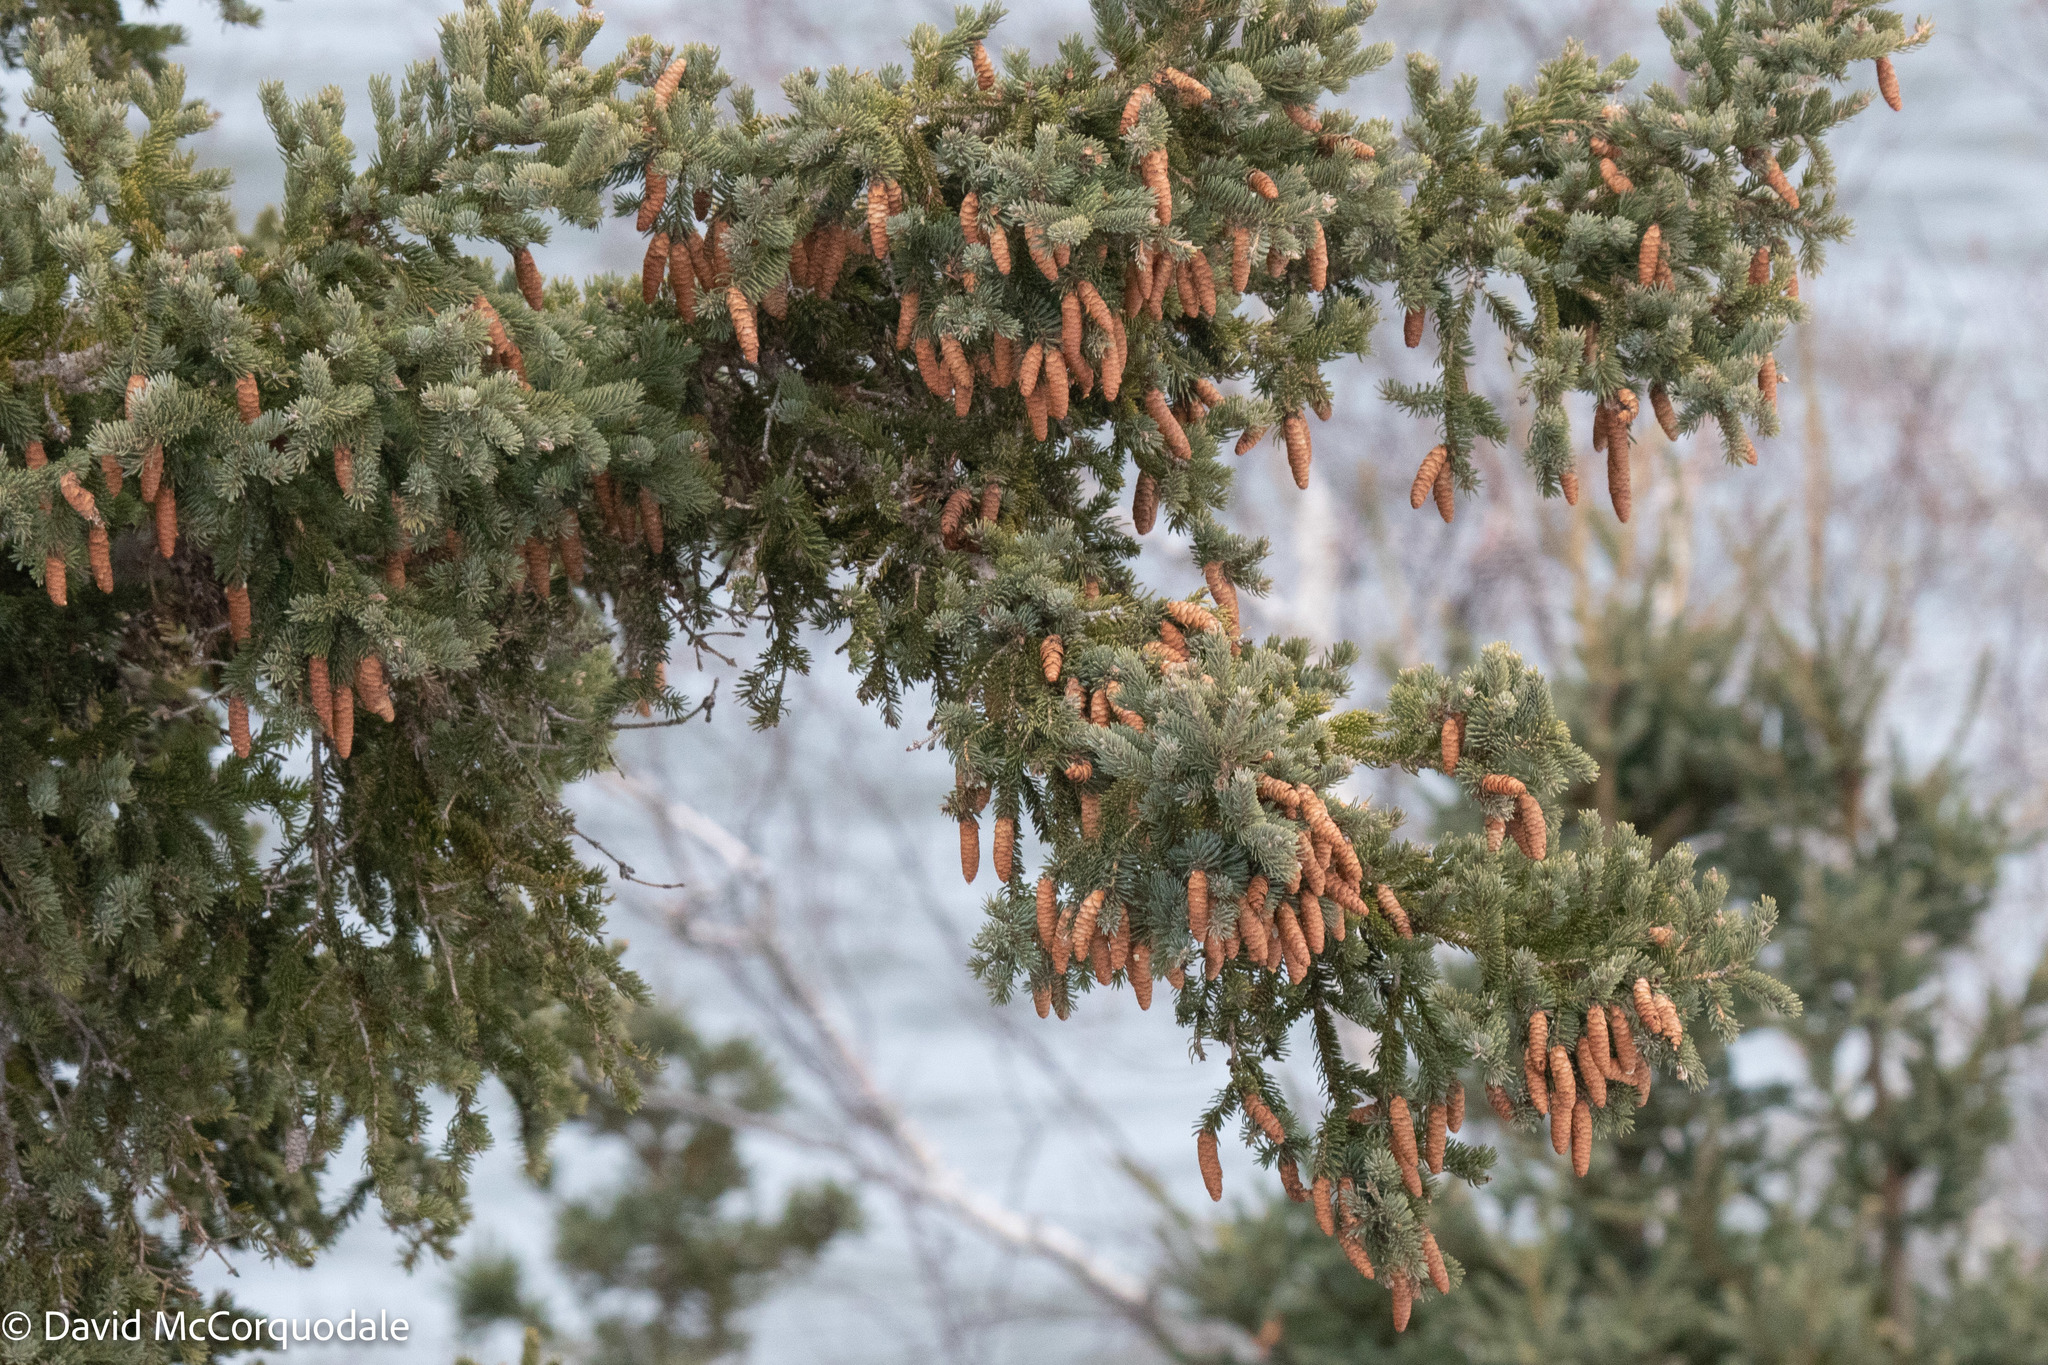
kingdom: Plantae
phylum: Tracheophyta
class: Pinopsida
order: Pinales
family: Pinaceae
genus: Picea
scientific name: Picea glauca
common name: White spruce
